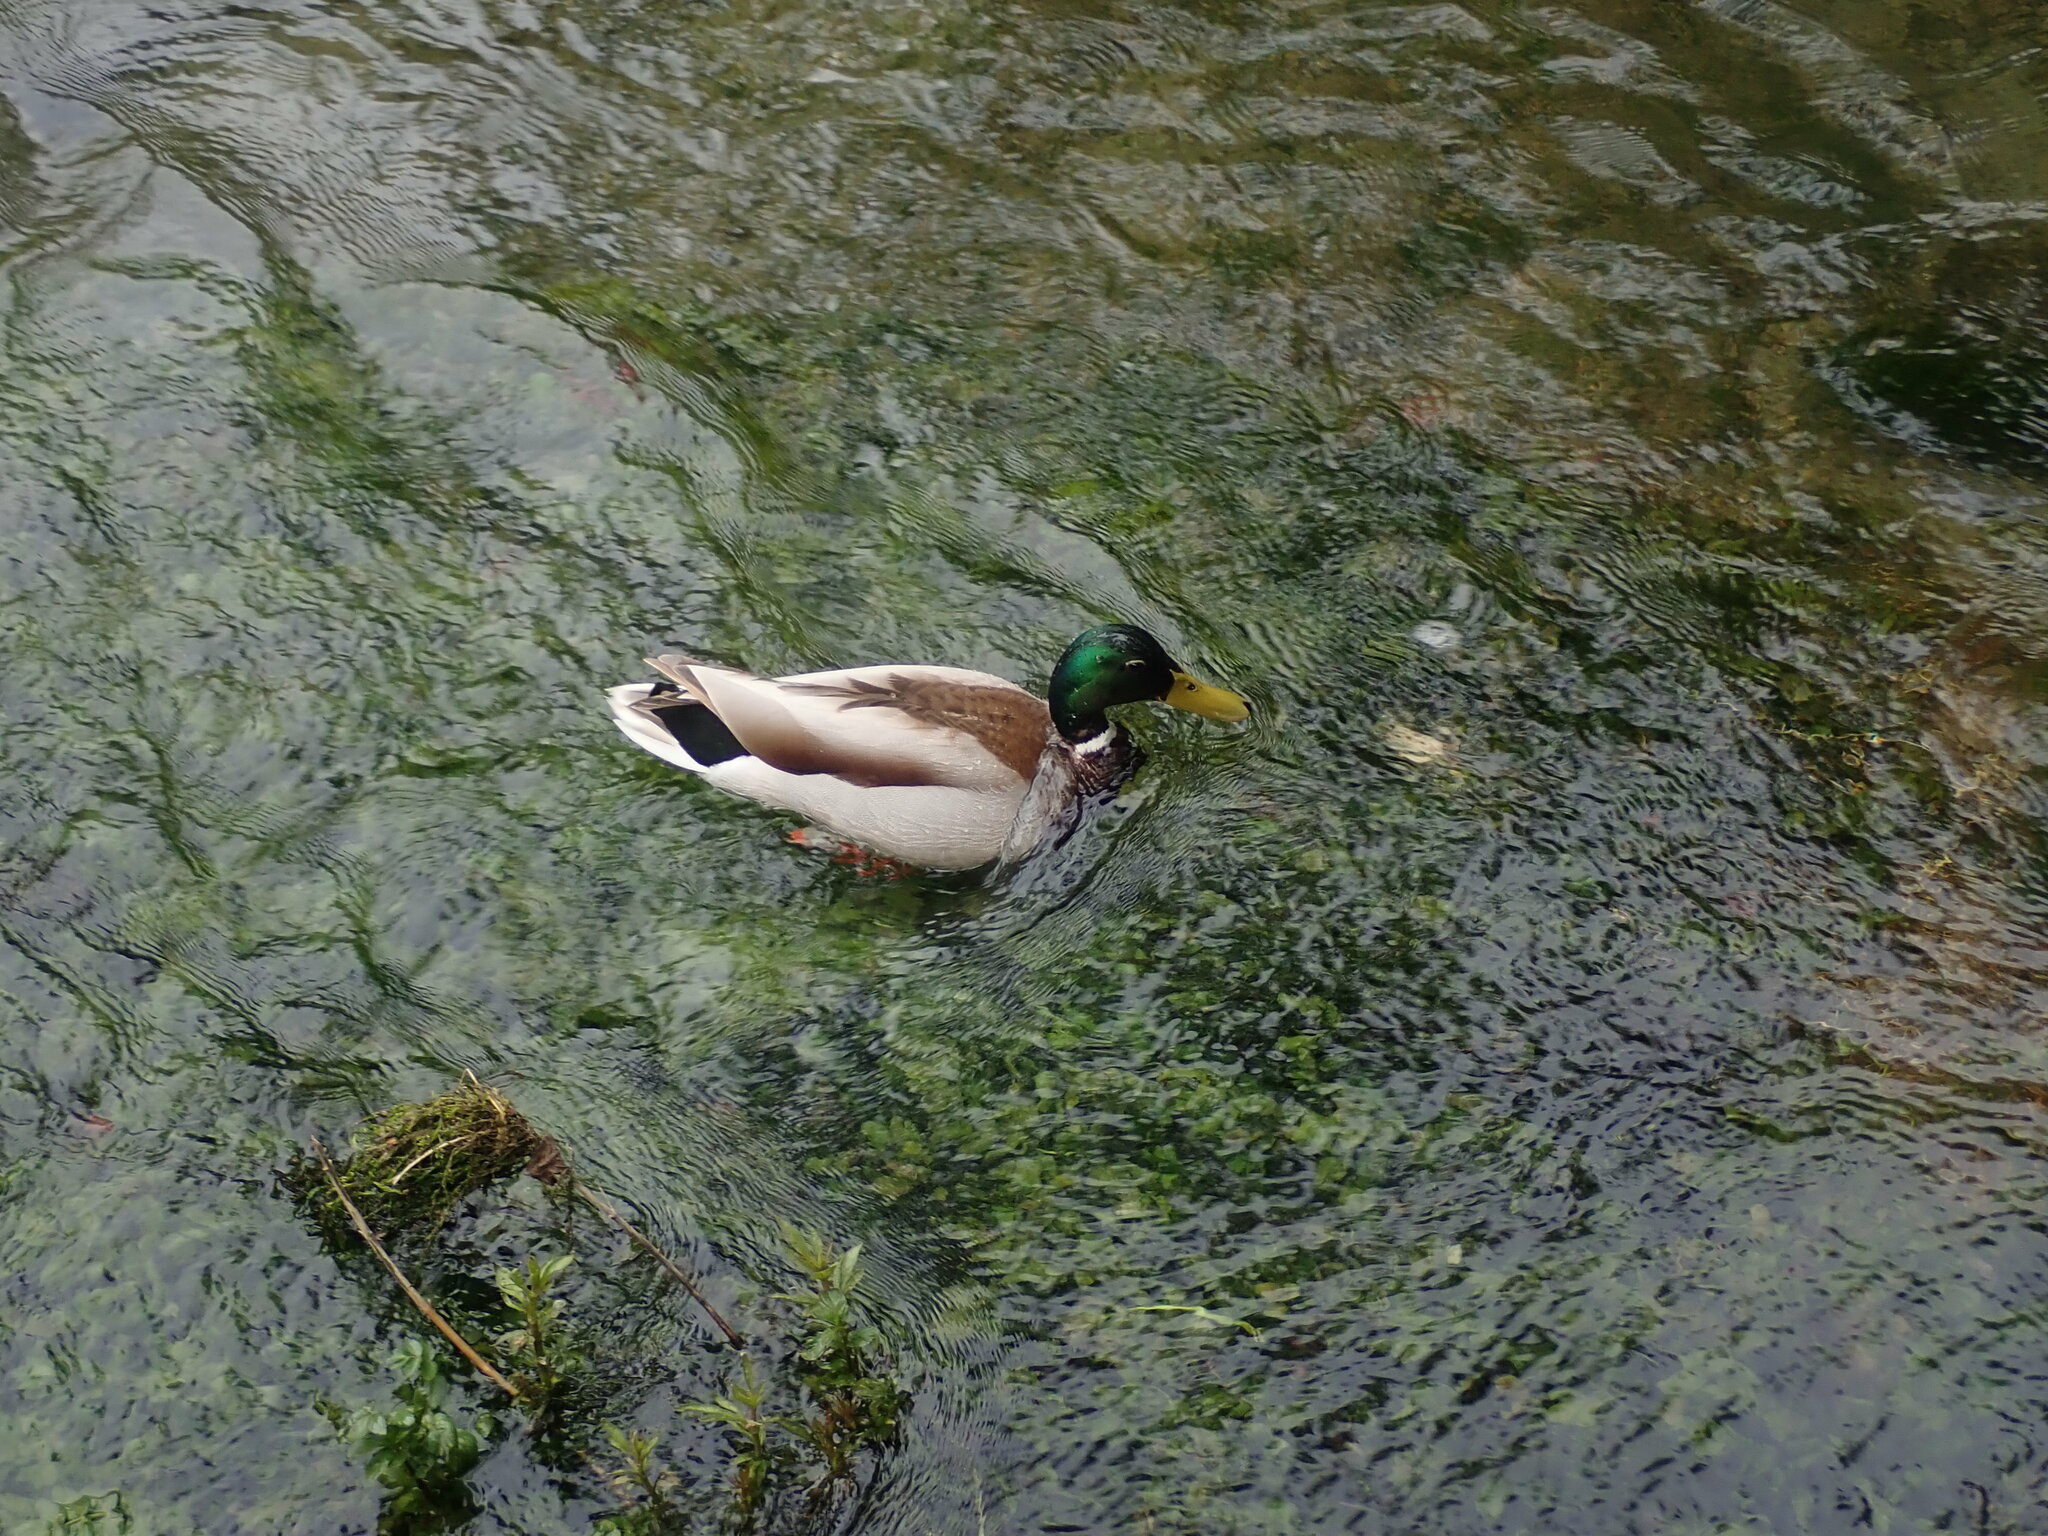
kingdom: Animalia
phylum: Chordata
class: Aves
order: Anseriformes
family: Anatidae
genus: Anas
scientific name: Anas platyrhynchos
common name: Mallard
